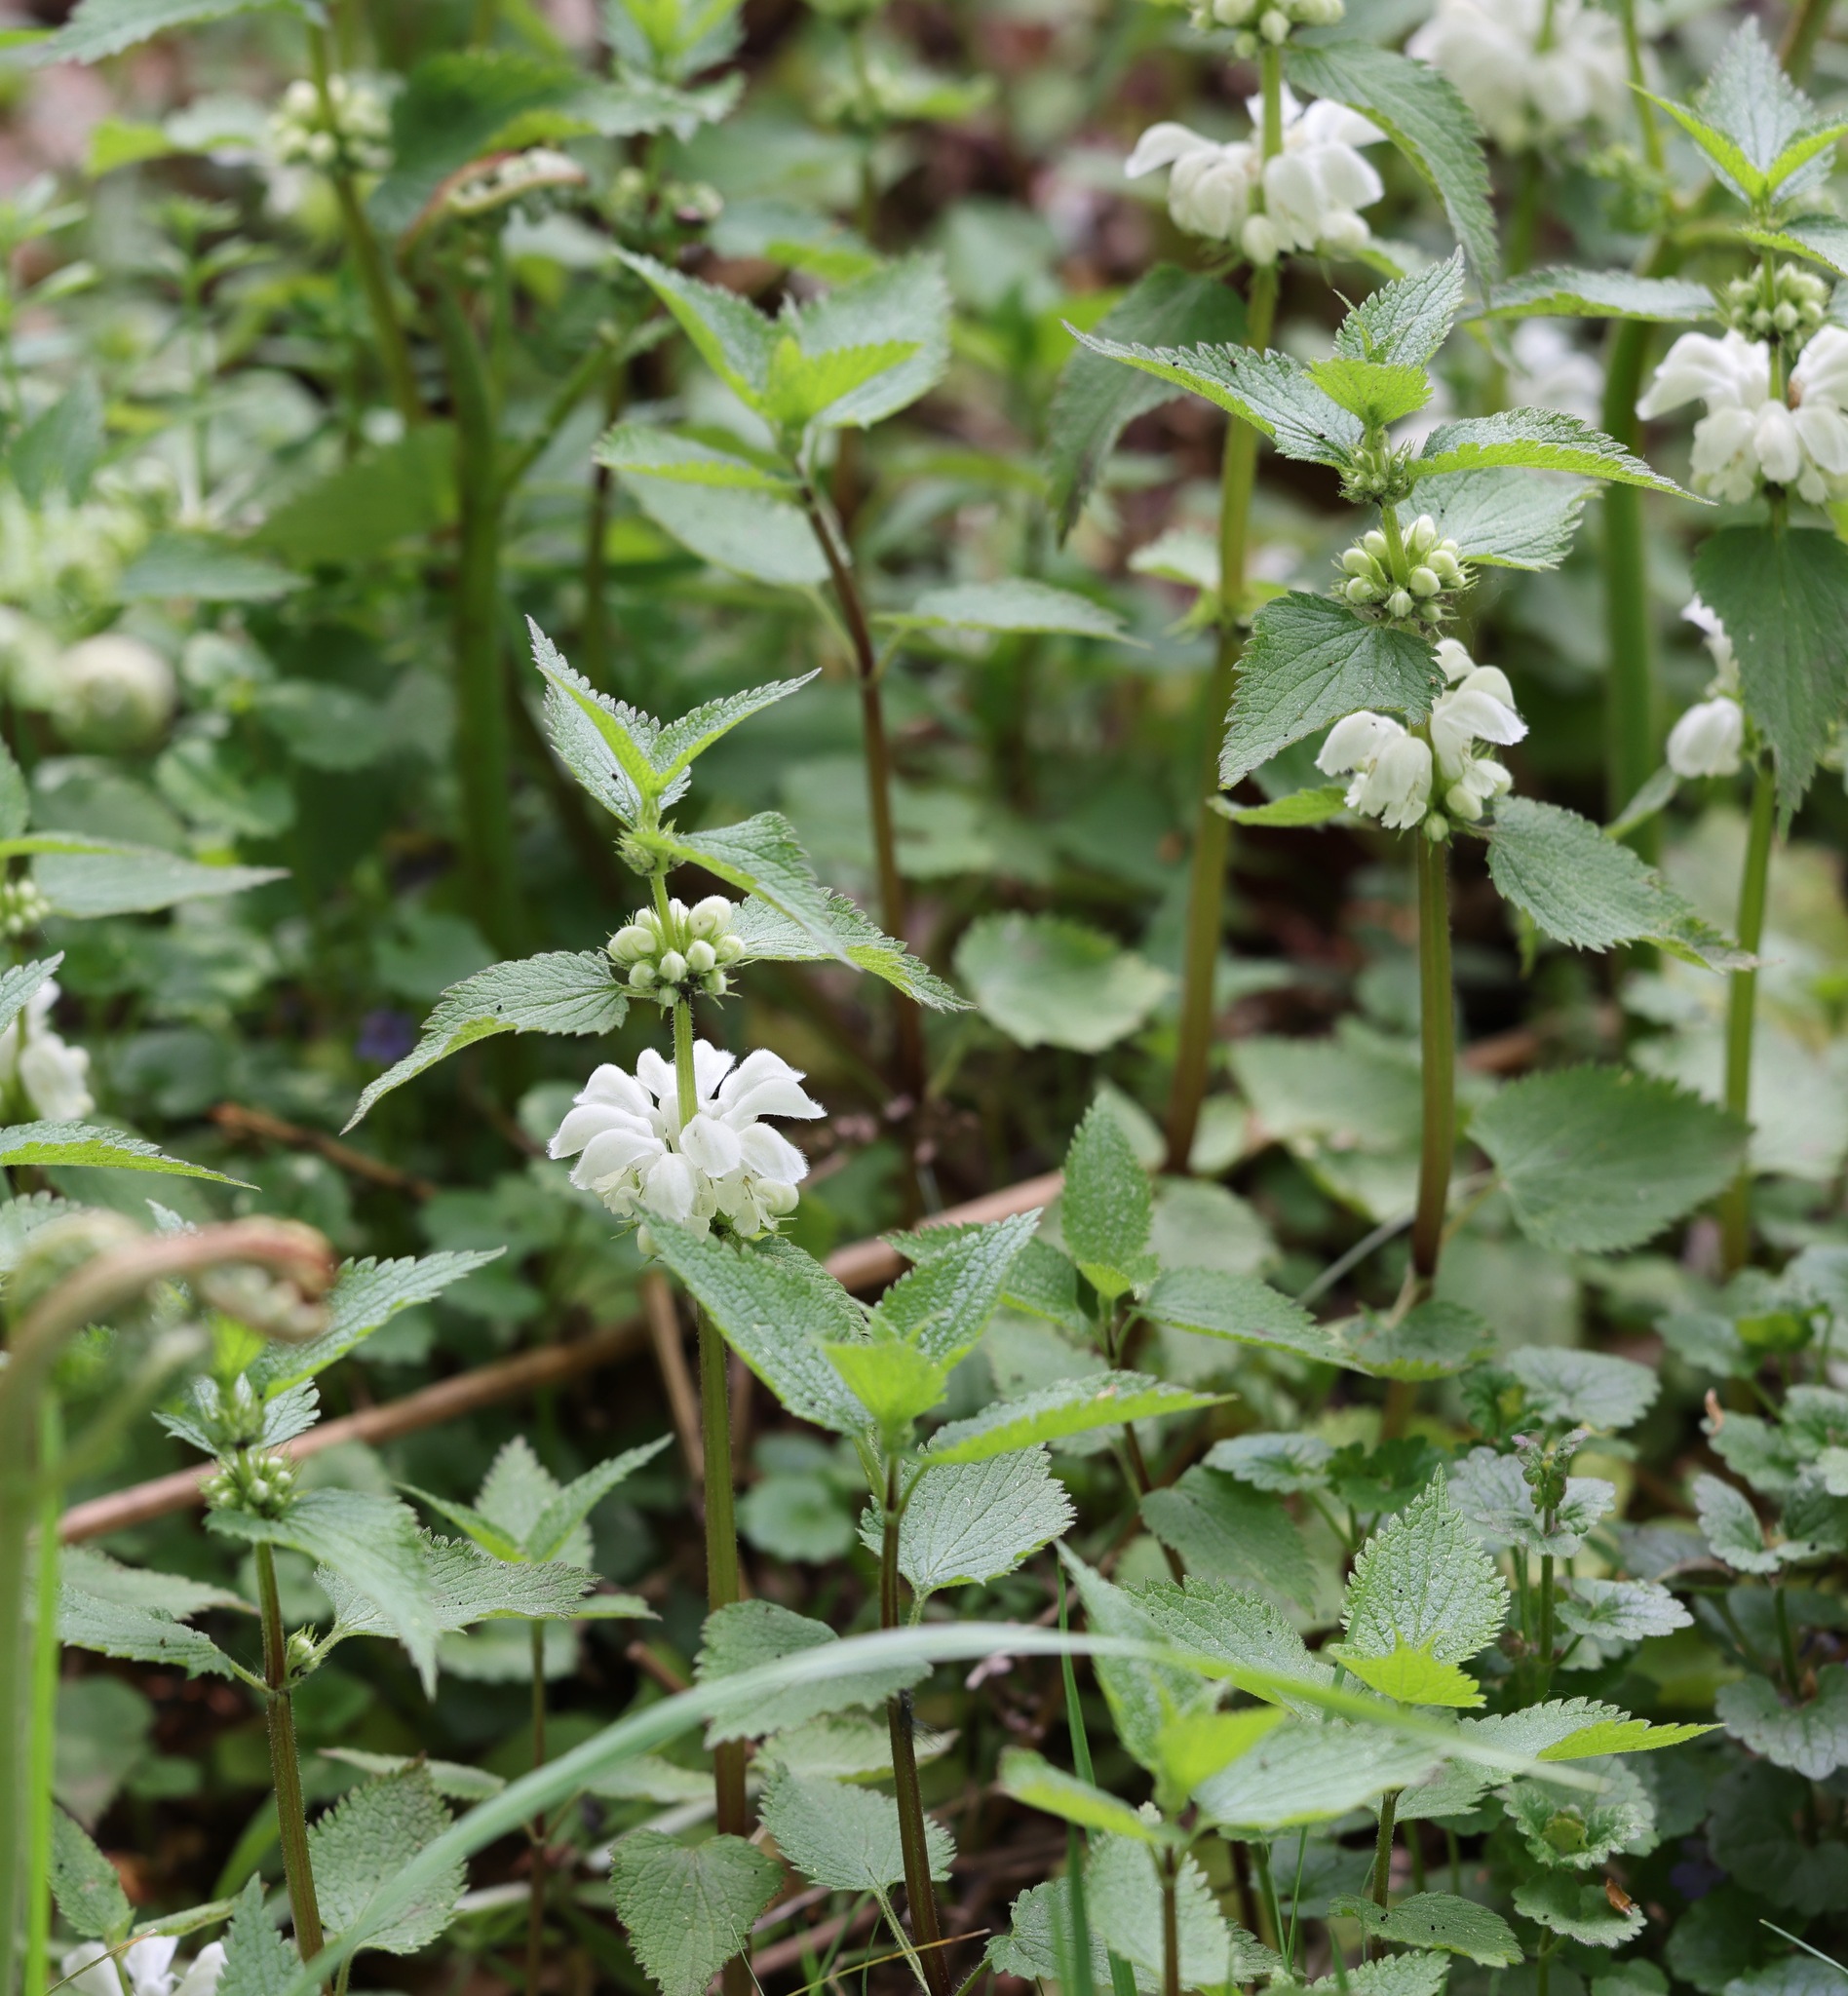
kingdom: Plantae
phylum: Tracheophyta
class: Magnoliopsida
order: Lamiales
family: Lamiaceae
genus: Lamium
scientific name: Lamium album
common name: White dead-nettle
